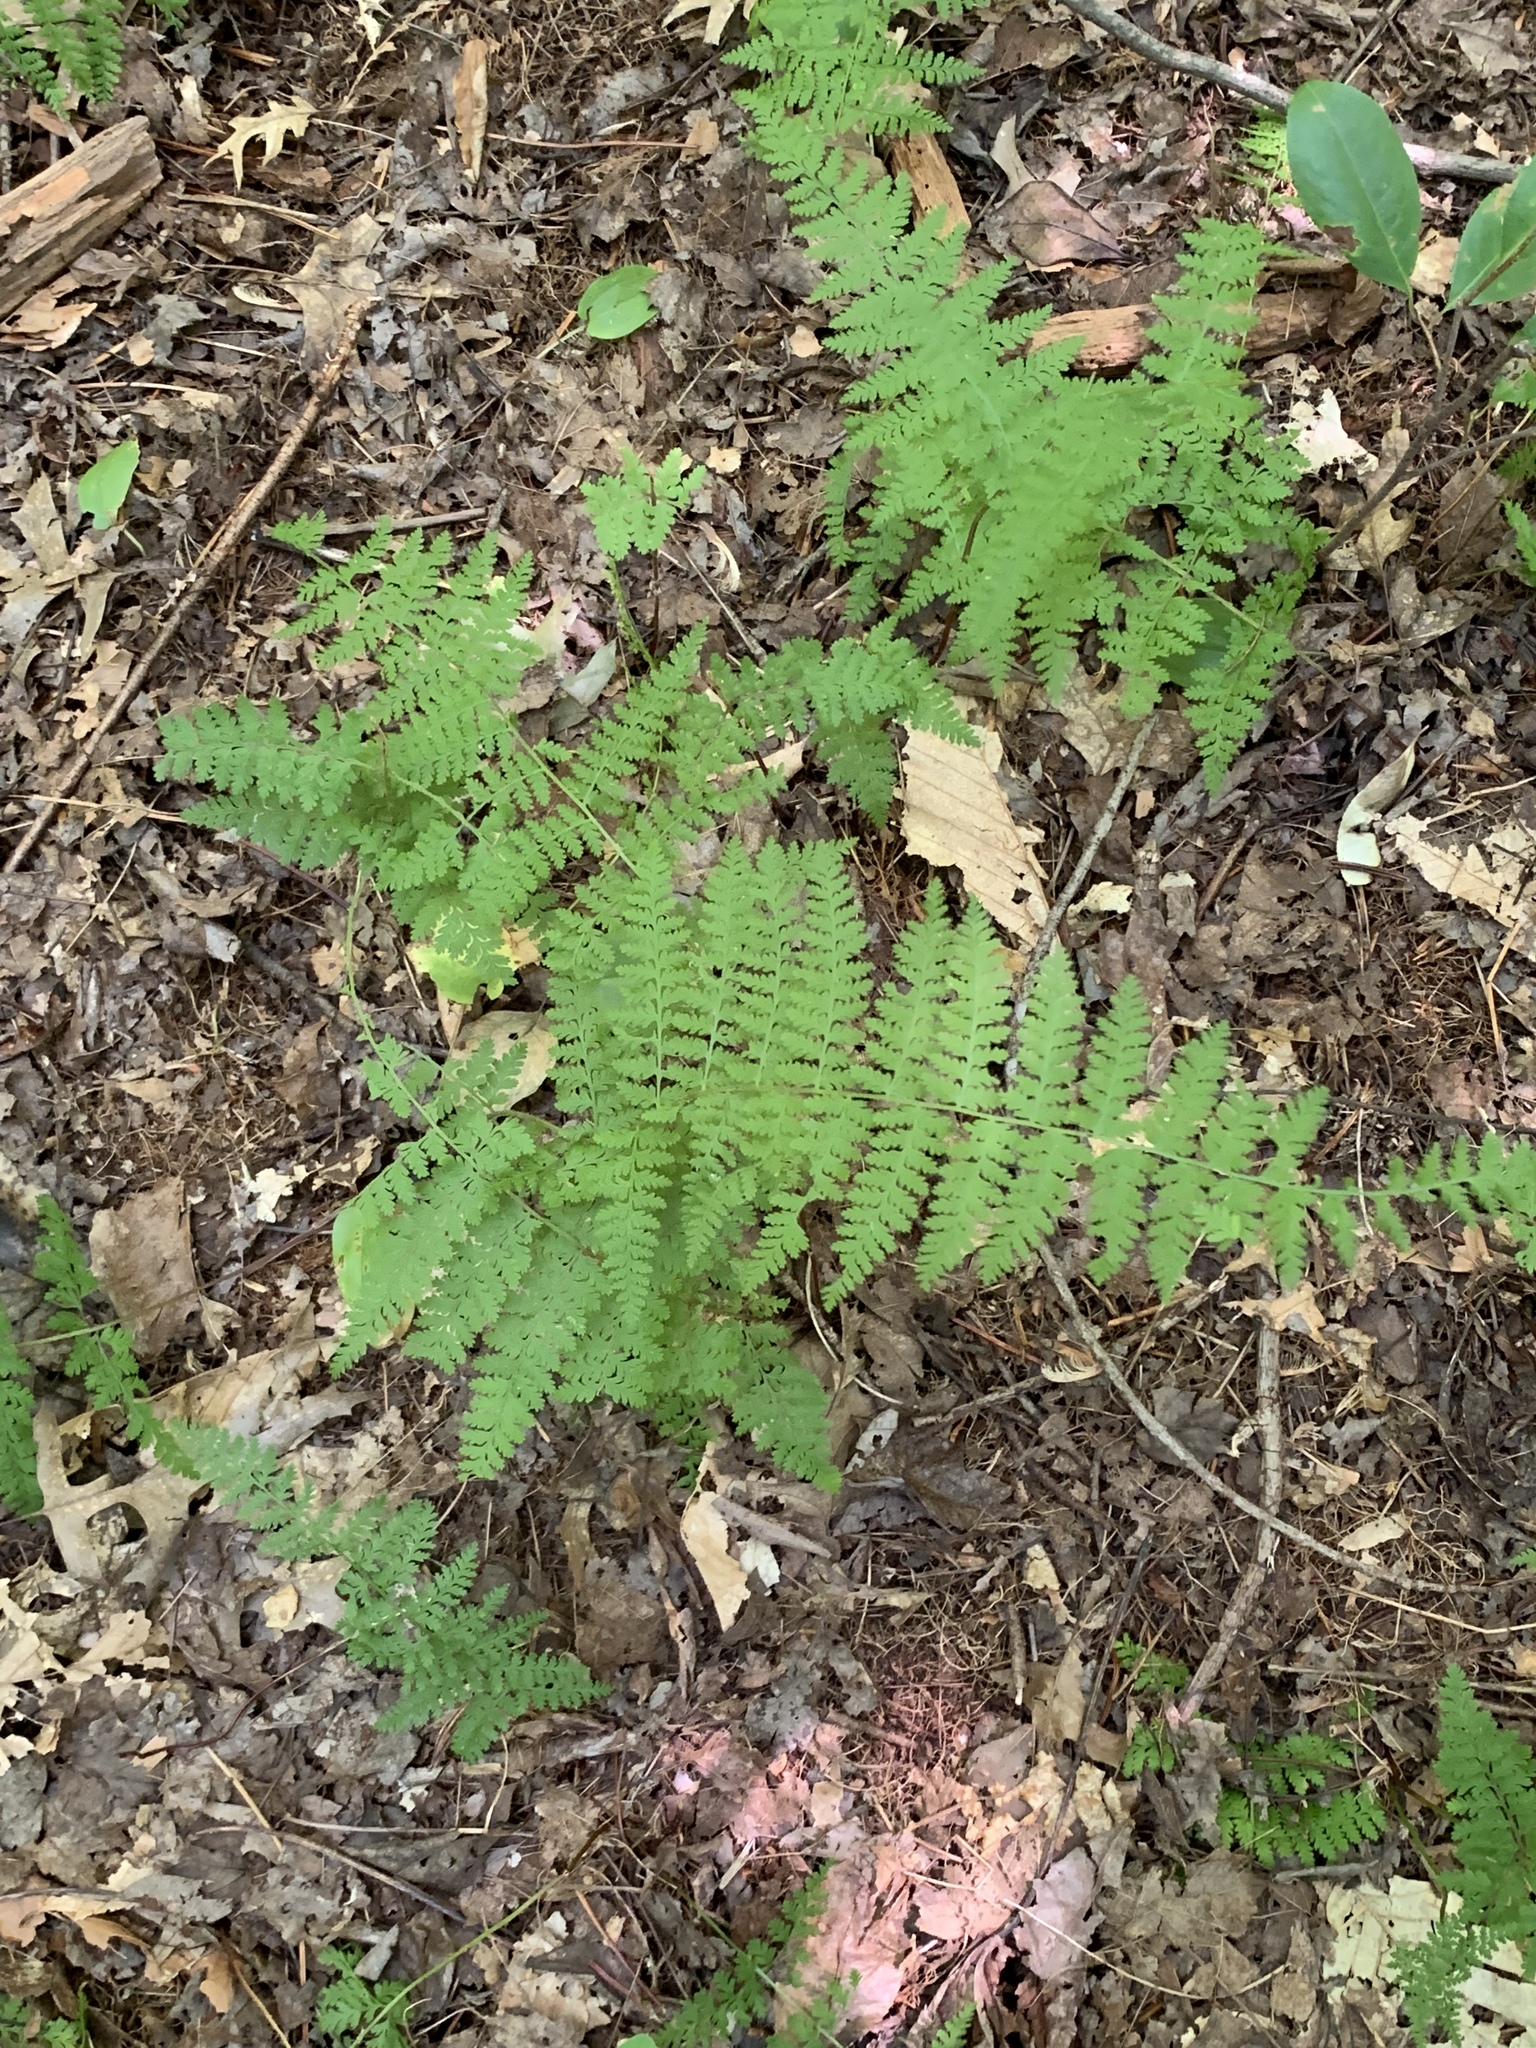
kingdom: Plantae
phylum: Tracheophyta
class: Polypodiopsida
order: Polypodiales
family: Dennstaedtiaceae
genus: Sitobolium
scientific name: Sitobolium punctilobum
